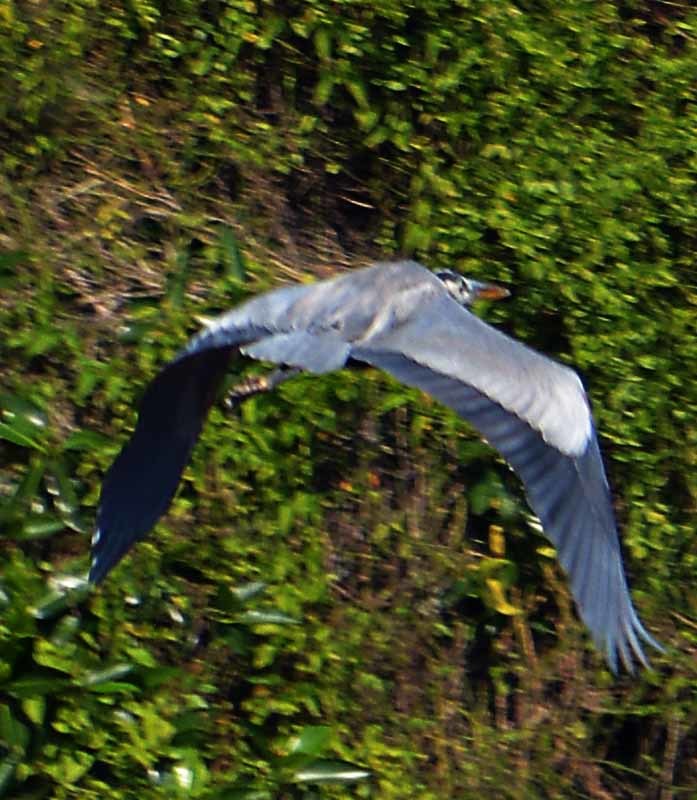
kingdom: Animalia
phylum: Chordata
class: Aves
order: Pelecaniformes
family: Ardeidae
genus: Ardea
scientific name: Ardea herodias
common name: Great blue heron
